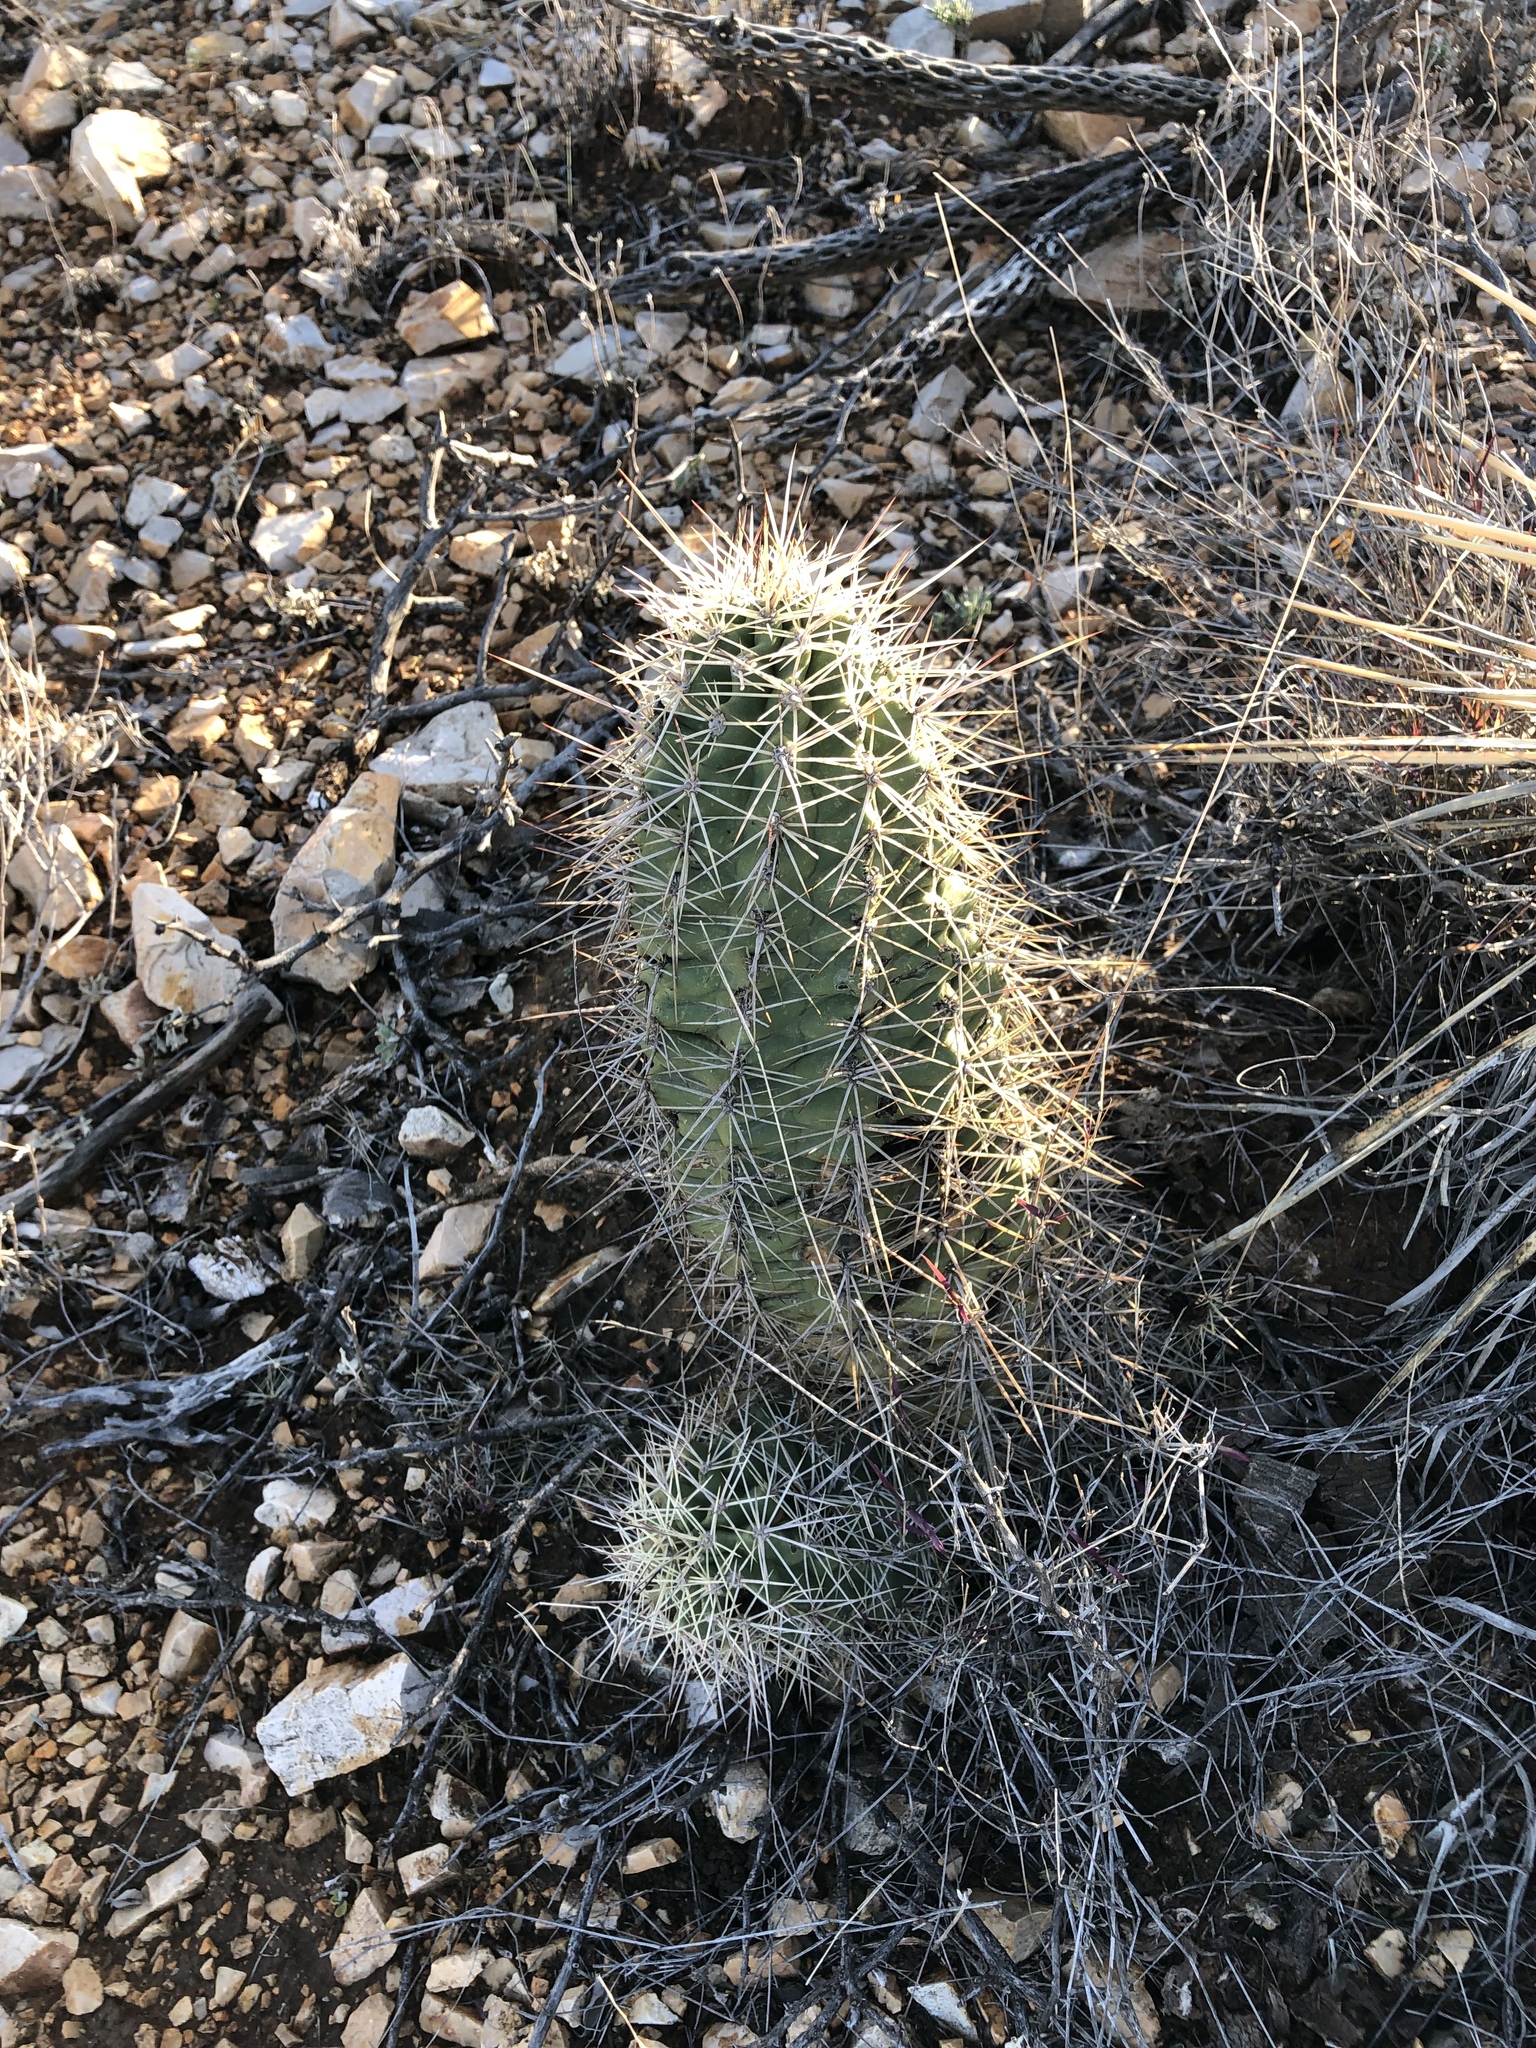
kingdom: Plantae
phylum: Tracheophyta
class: Magnoliopsida
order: Caryophyllales
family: Cactaceae
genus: Echinocereus
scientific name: Echinocereus coccineus
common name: Scarlet hedgehog cactus
